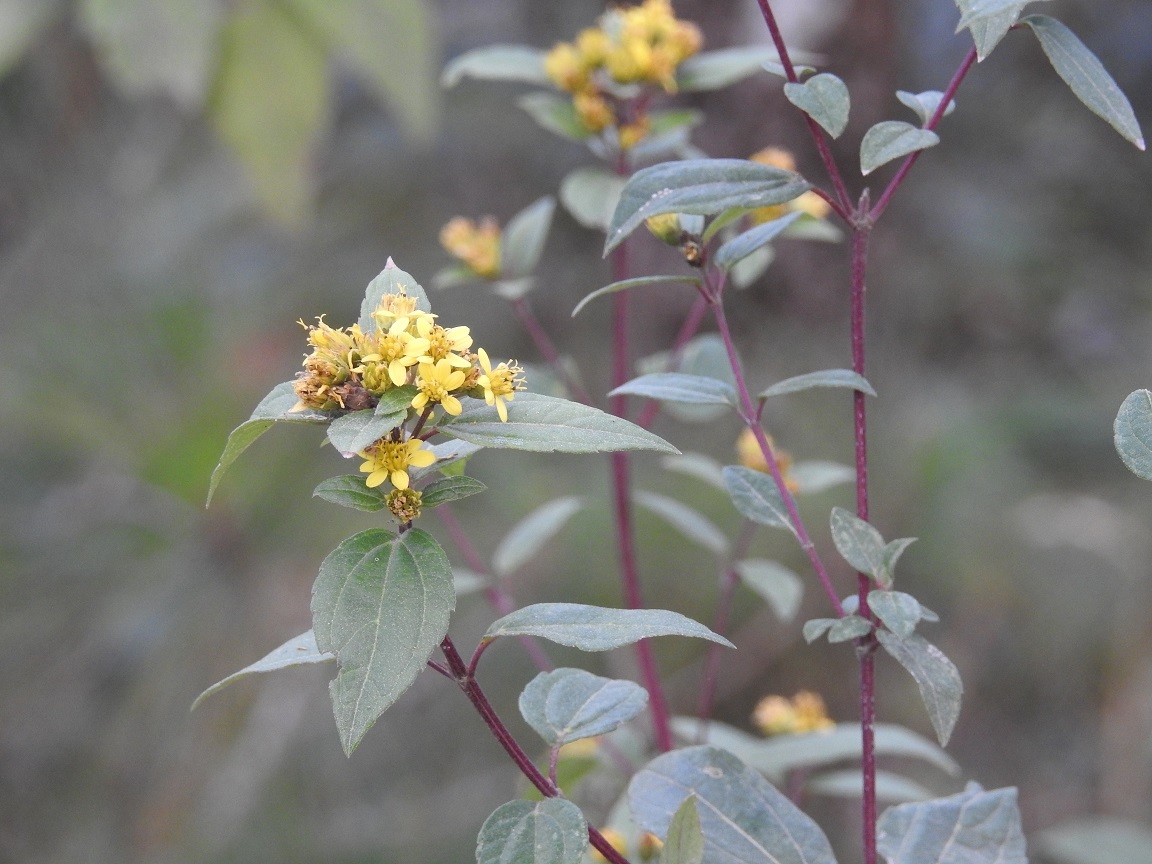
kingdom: Plantae
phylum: Tracheophyta
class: Magnoliopsida
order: Asterales
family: Asteraceae
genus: Calea
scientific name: Calea urticifolia
